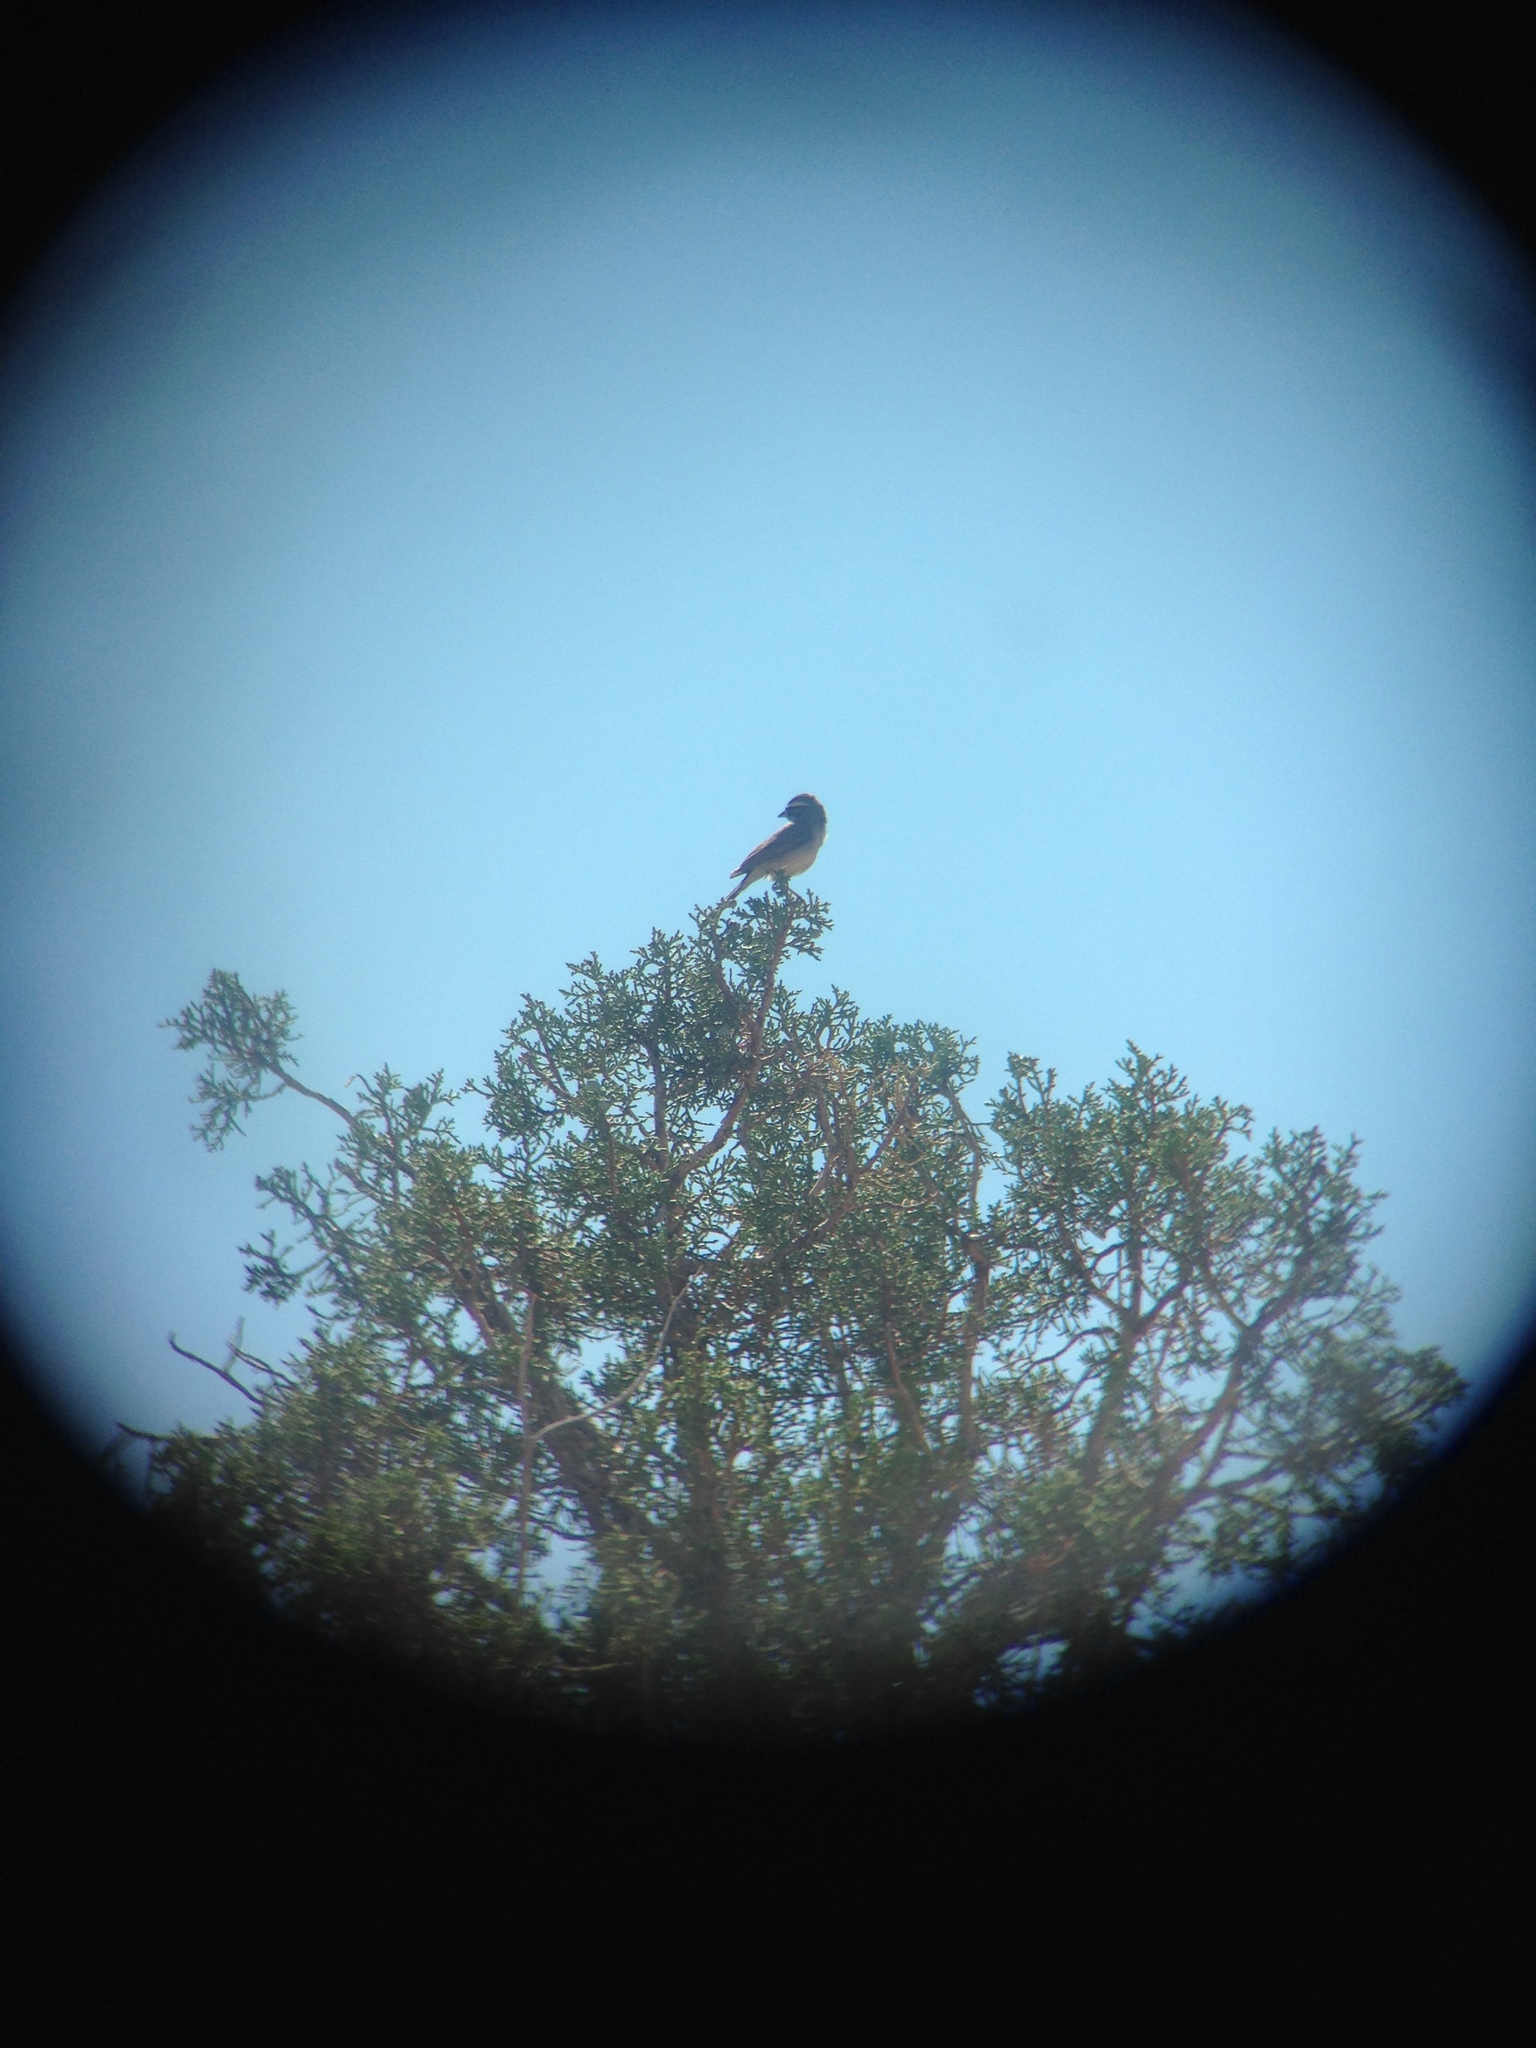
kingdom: Animalia
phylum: Chordata
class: Aves
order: Passeriformes
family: Passerellidae
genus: Amphispiza
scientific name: Amphispiza bilineata
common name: Black-throated sparrow
